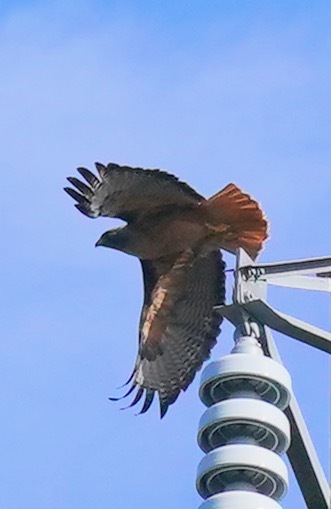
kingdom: Animalia
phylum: Chordata
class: Aves
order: Accipitriformes
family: Accipitridae
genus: Buteo
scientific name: Buteo jamaicensis
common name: Red-tailed hawk
